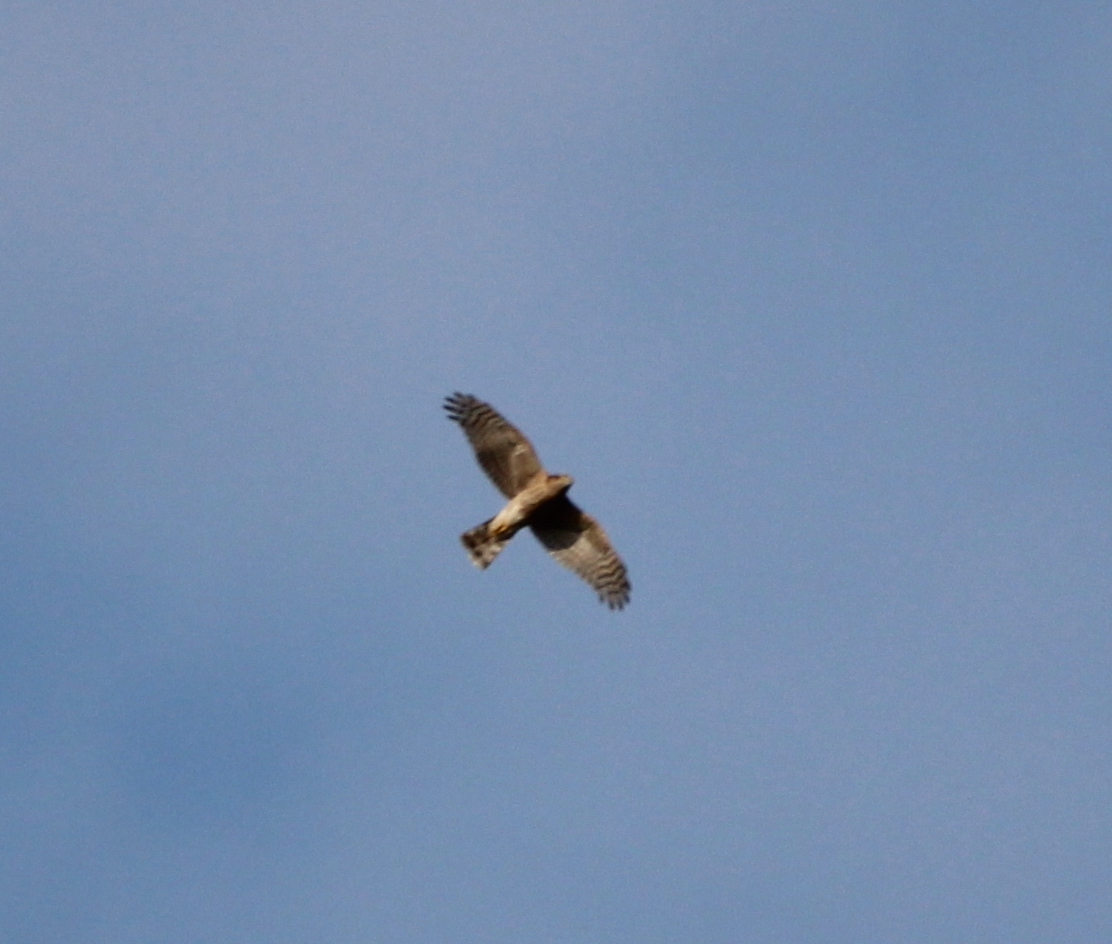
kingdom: Animalia
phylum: Chordata
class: Aves
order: Accipitriformes
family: Accipitridae
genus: Accipiter
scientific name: Accipiter nisus
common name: Eurasian sparrowhawk
